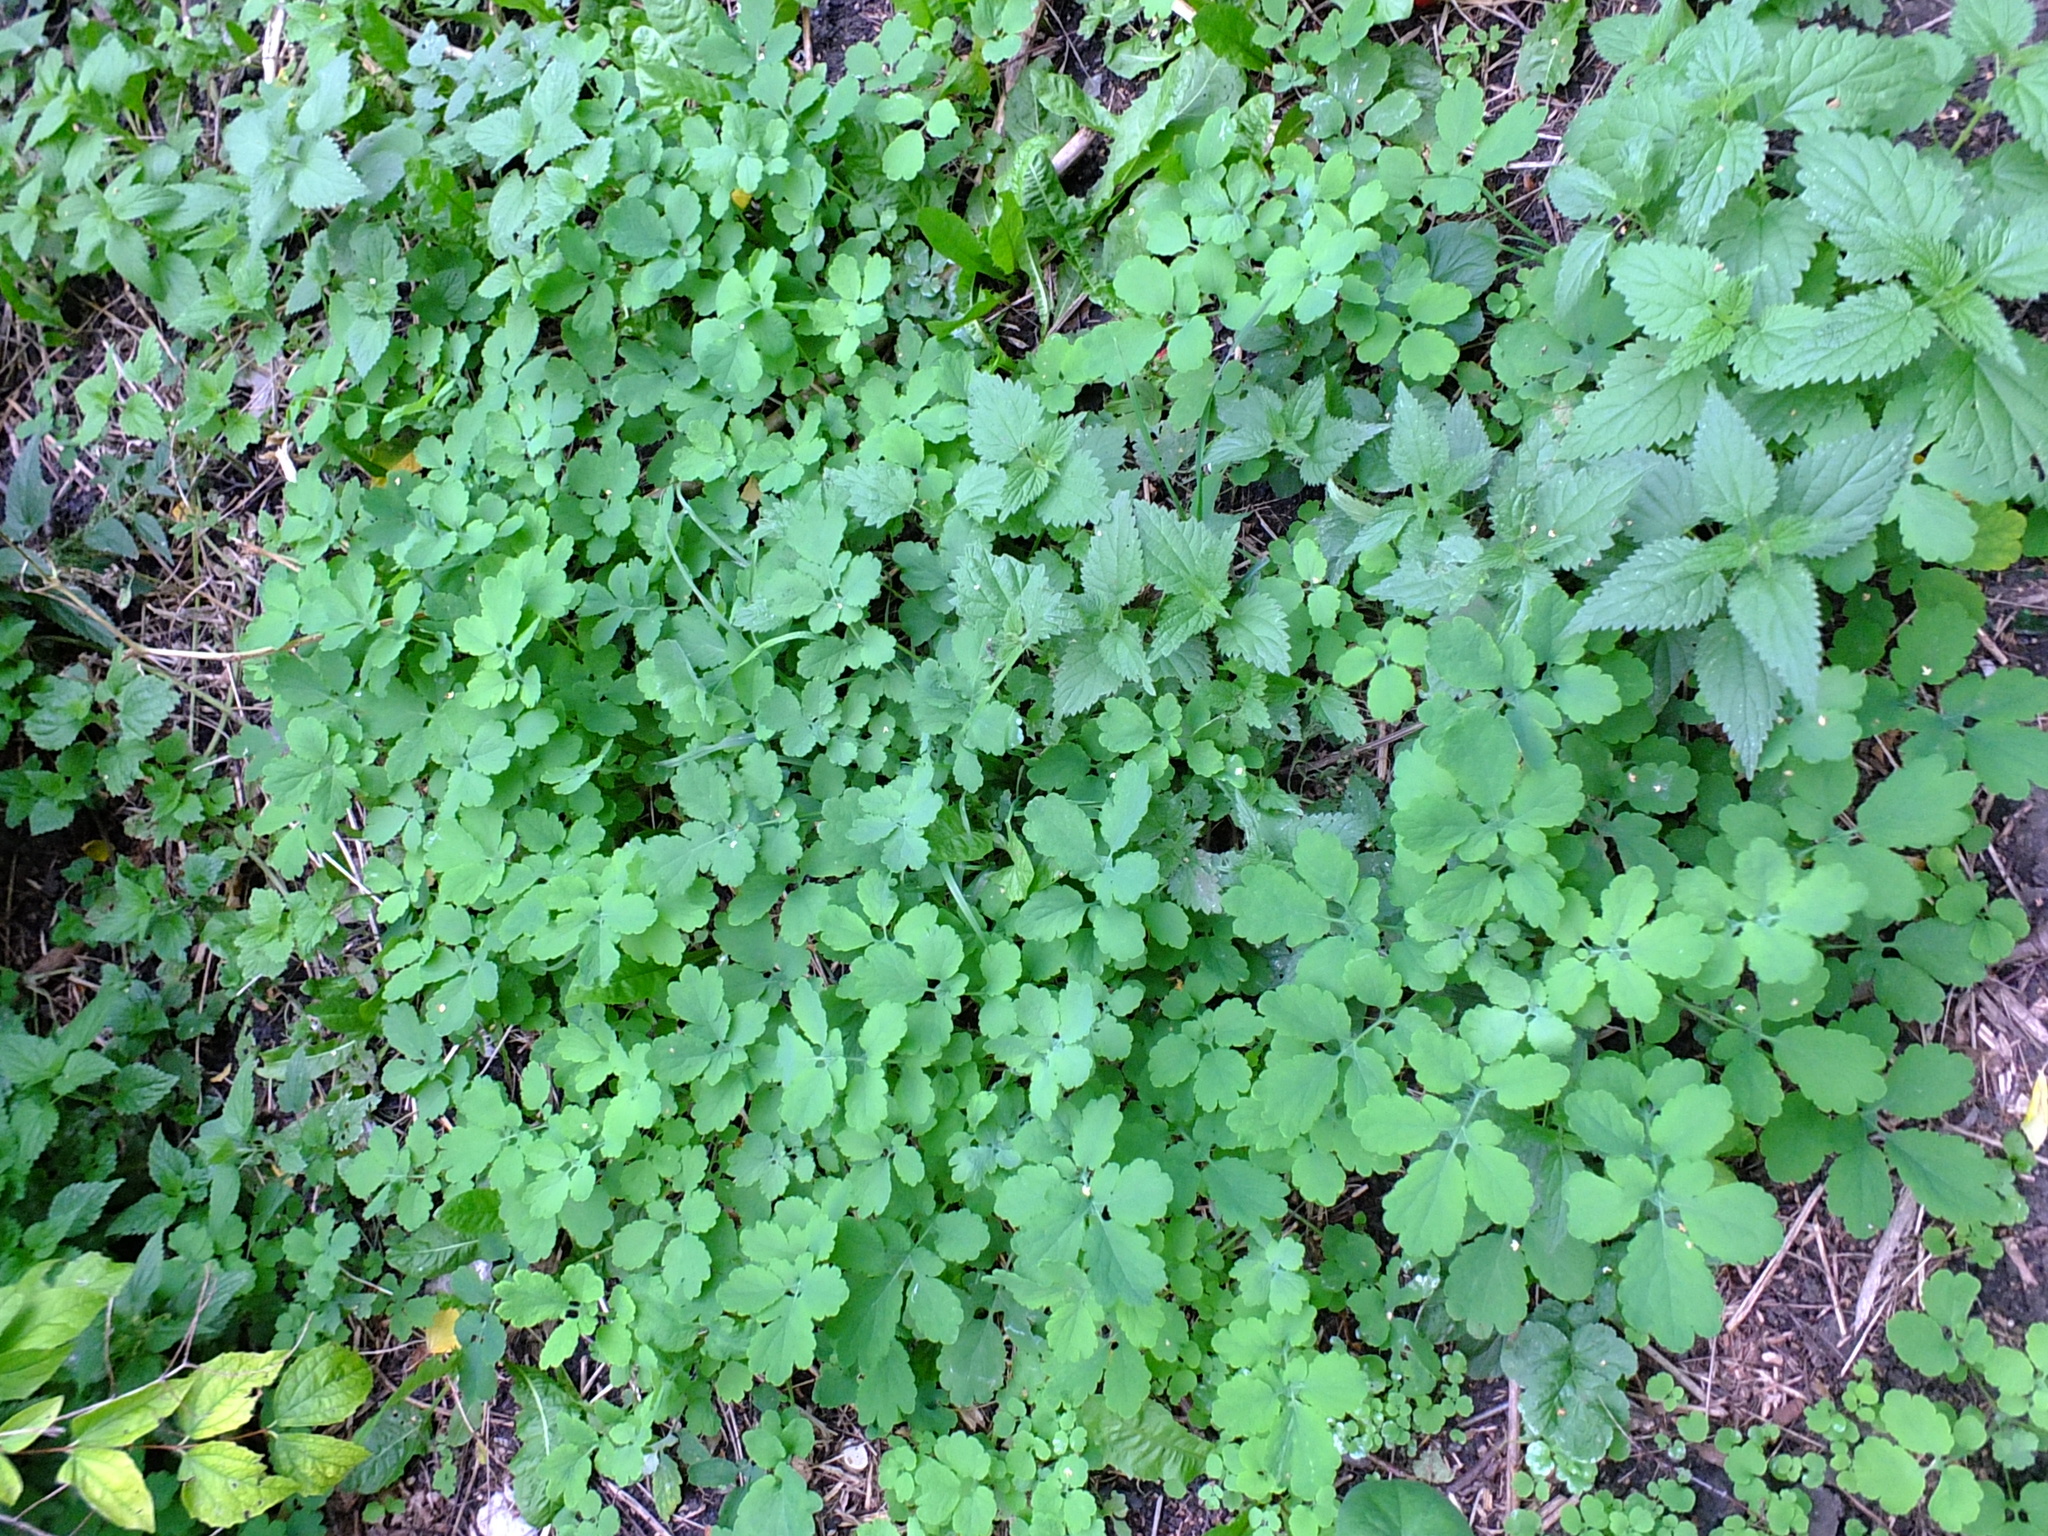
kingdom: Plantae
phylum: Tracheophyta
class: Magnoliopsida
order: Rosales
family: Urticaceae
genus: Urtica
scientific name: Urtica dioica
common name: Common nettle
